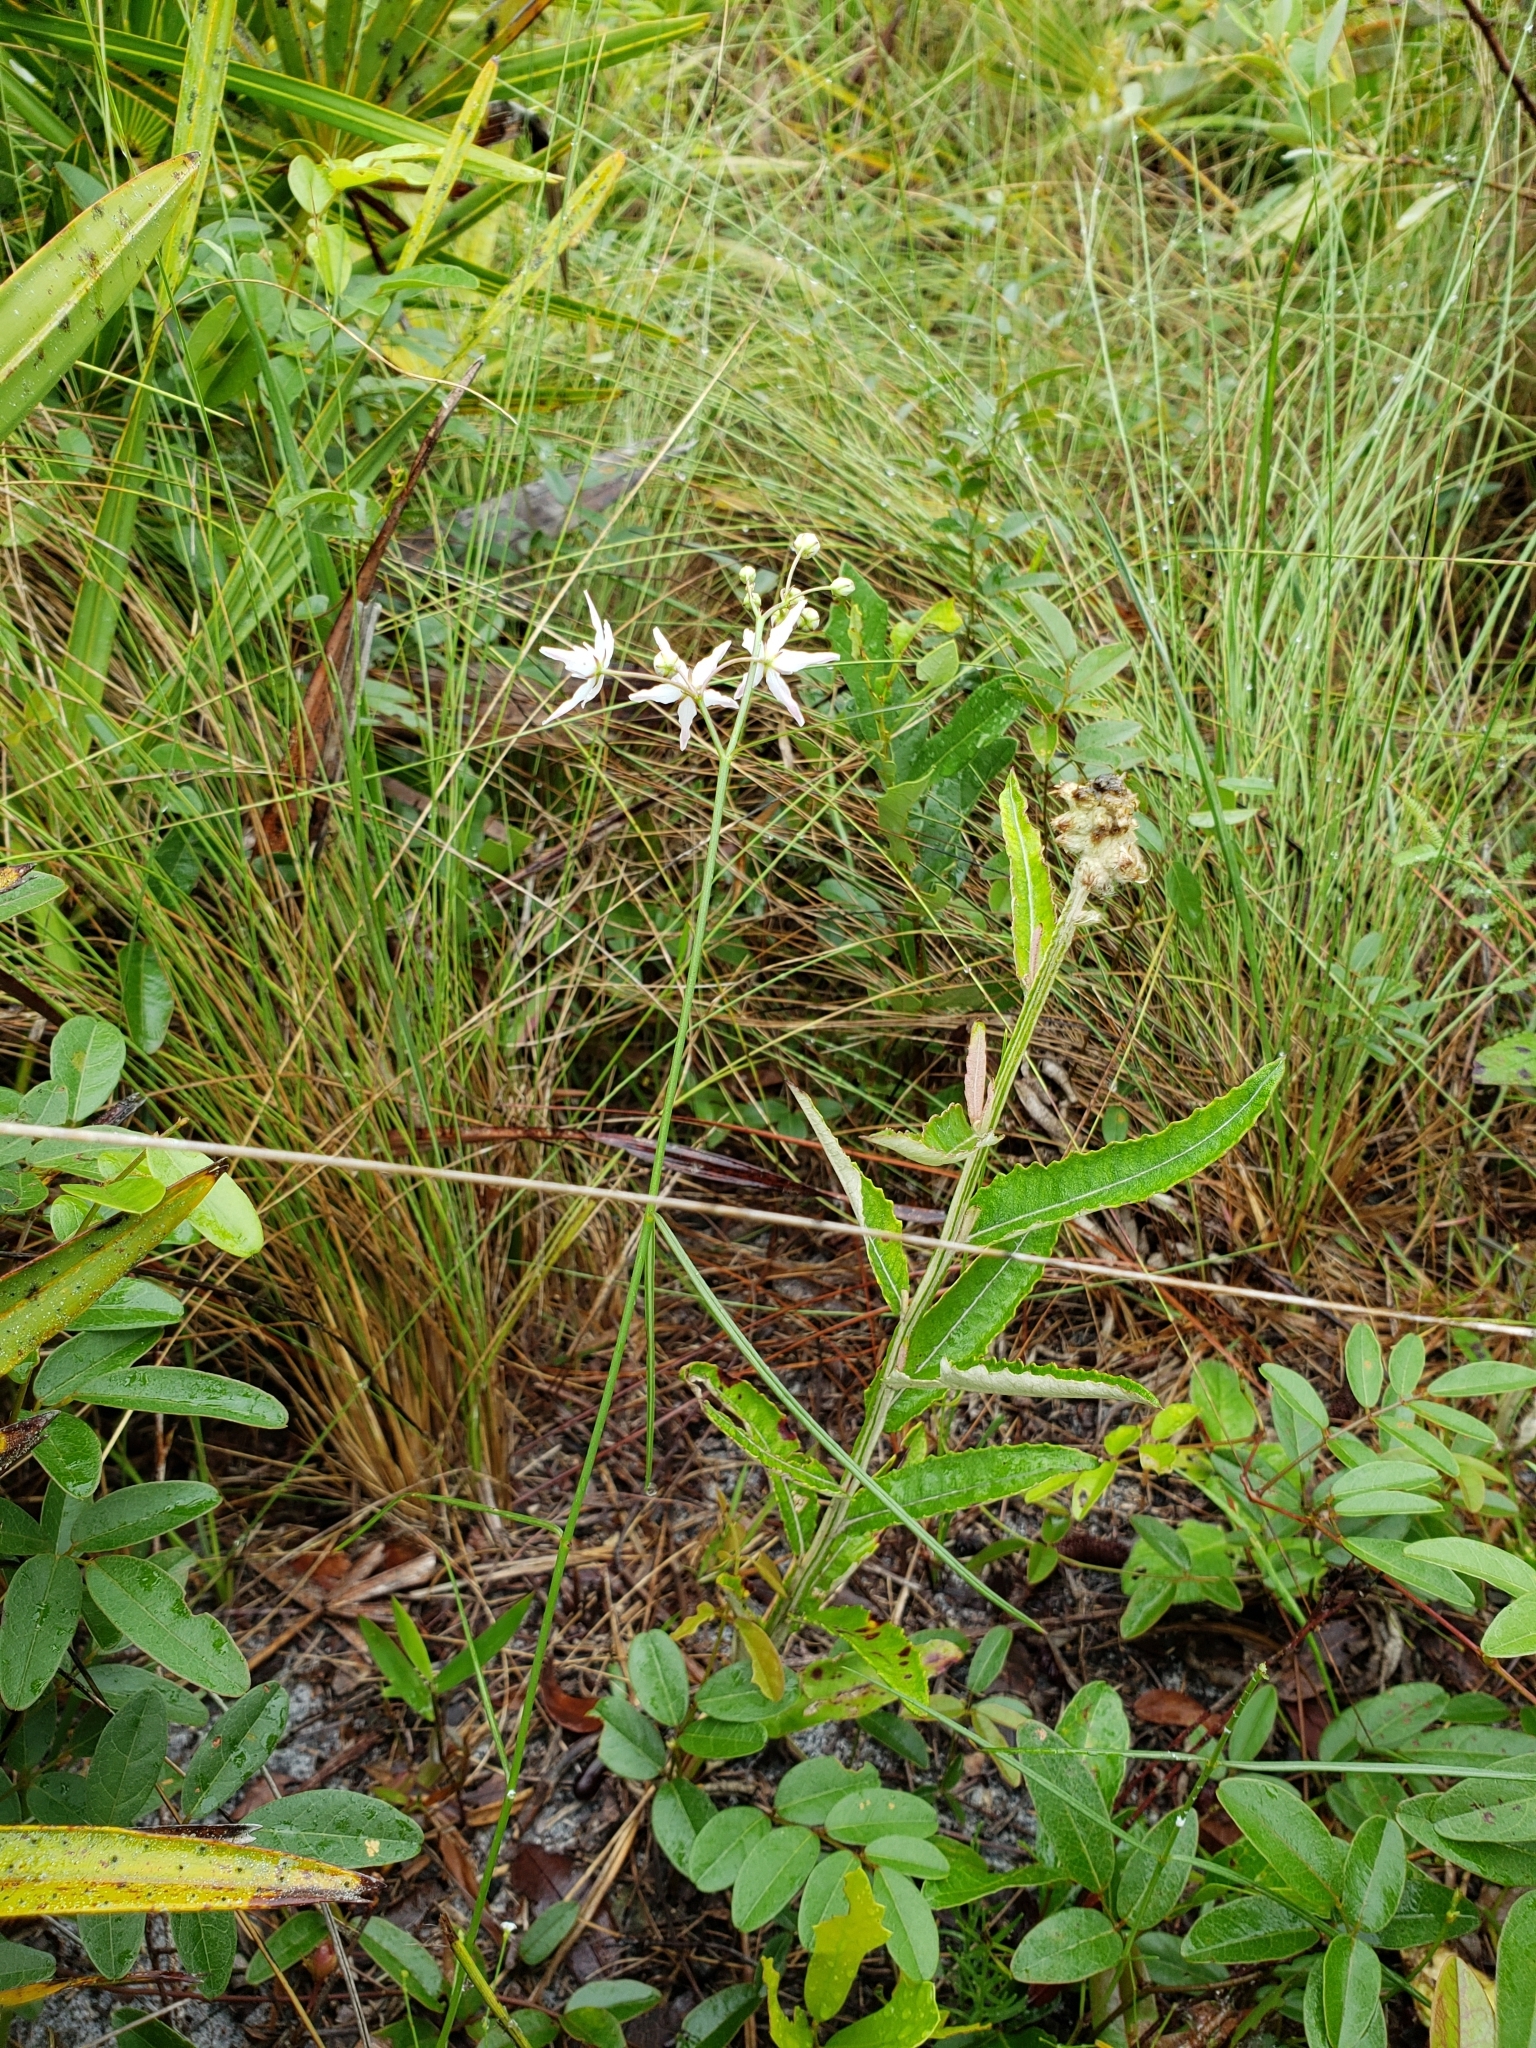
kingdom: Plantae
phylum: Tracheophyta
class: Magnoliopsida
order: Gentianales
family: Apocynaceae
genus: Asclepias
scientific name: Asclepias feayi
